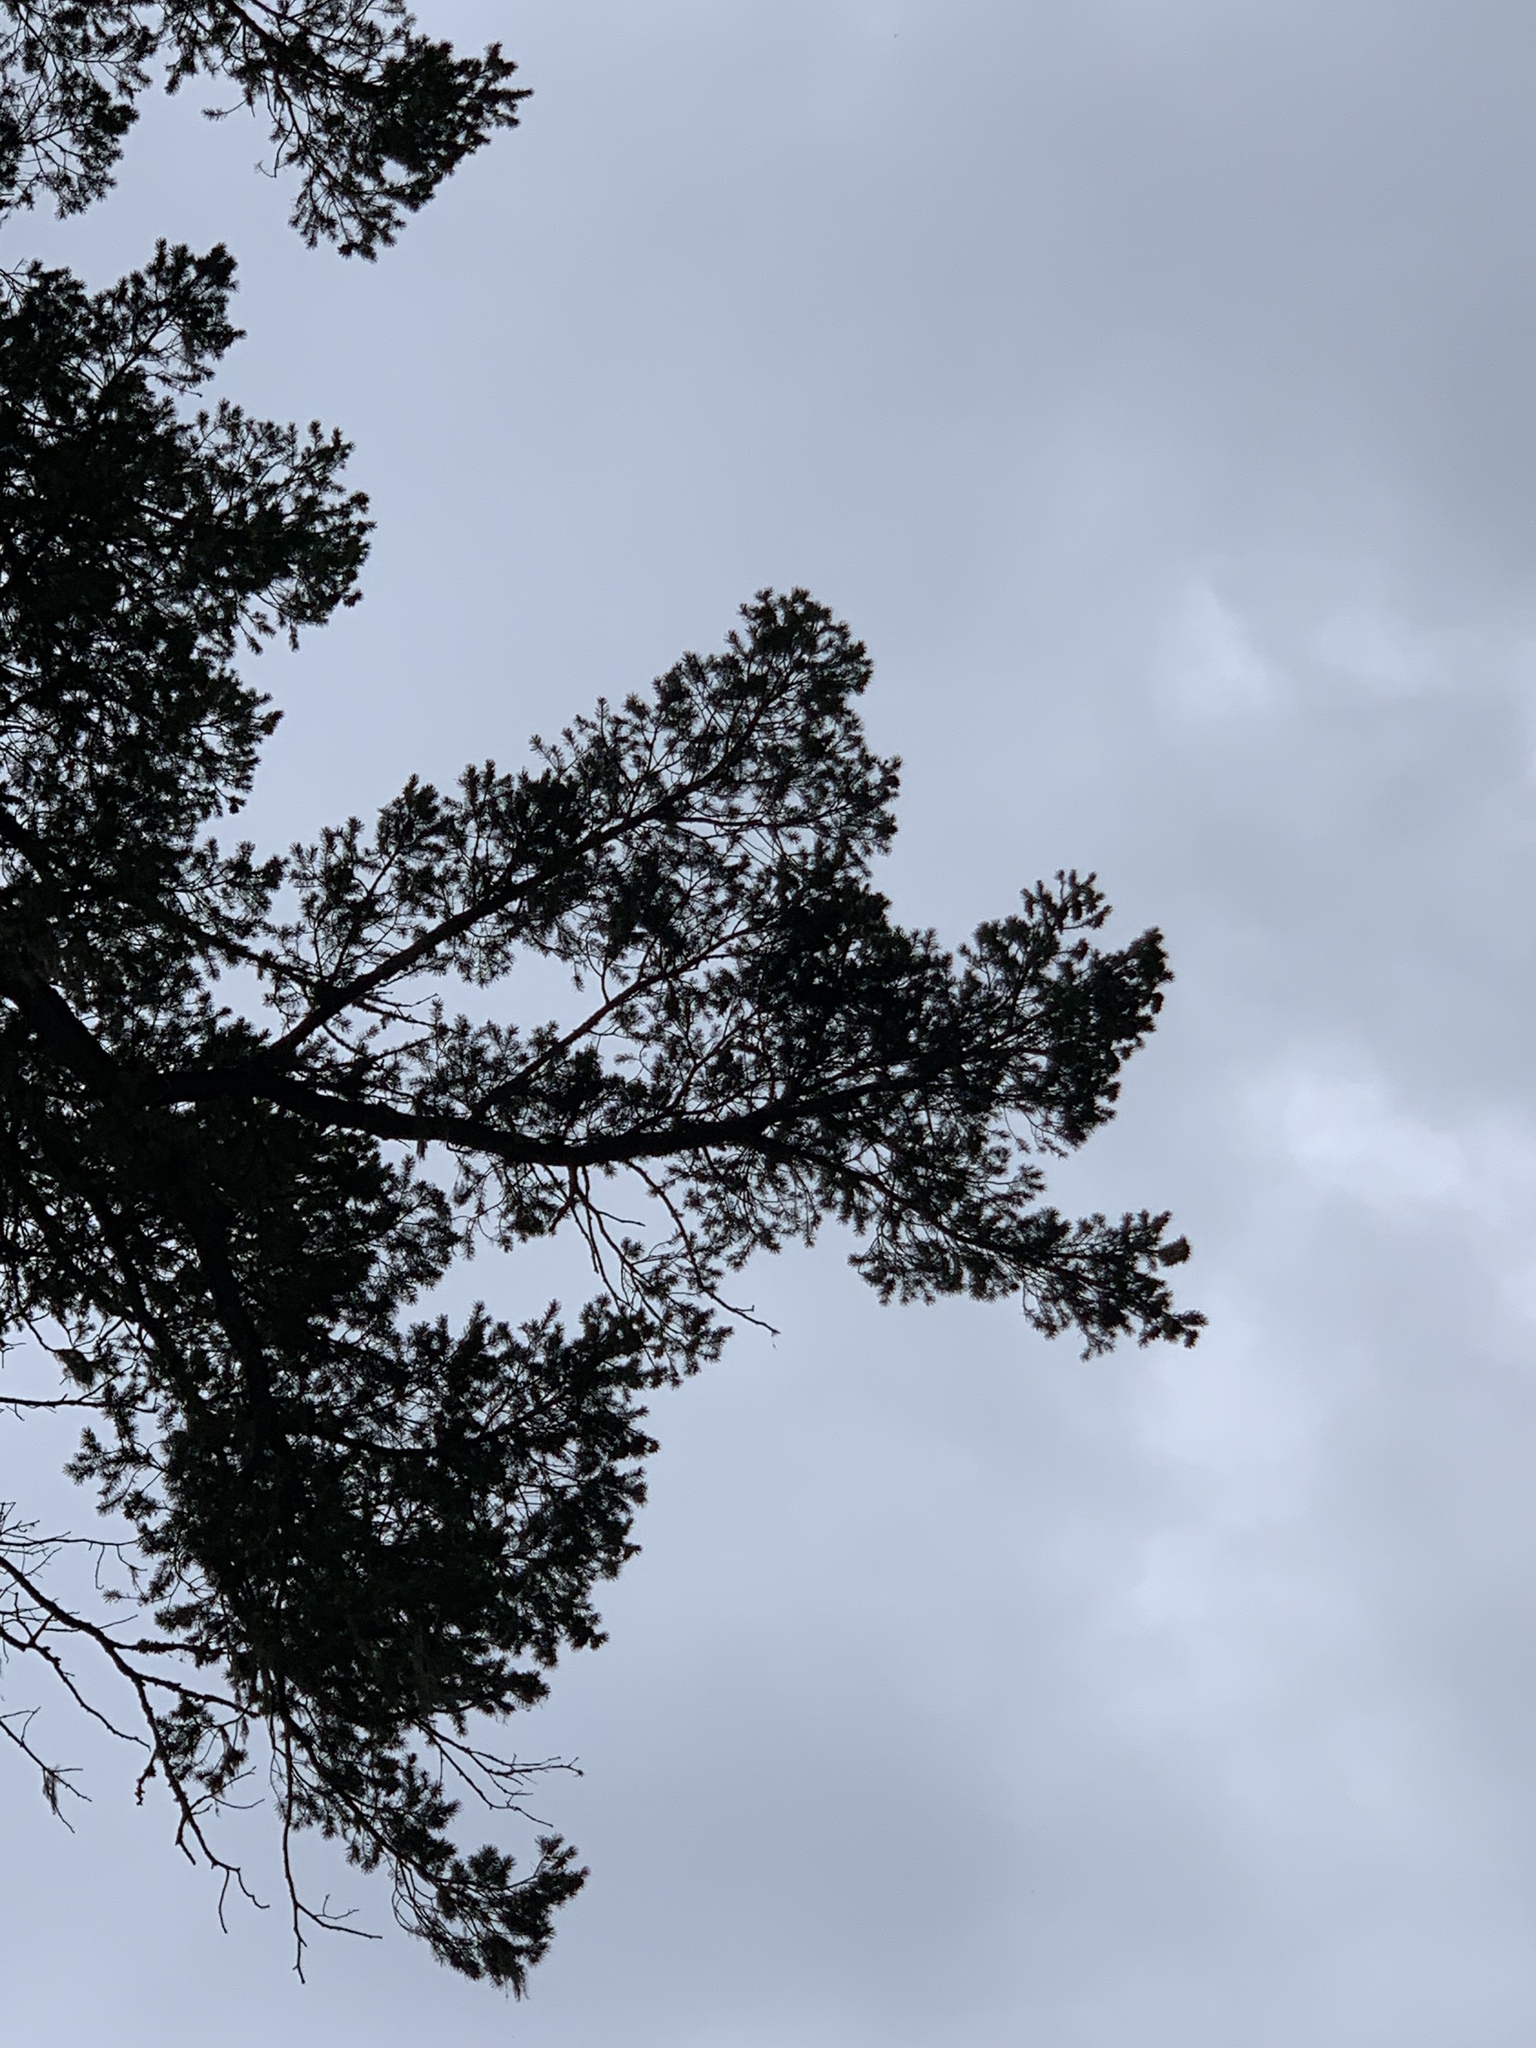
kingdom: Plantae
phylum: Tracheophyta
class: Pinopsida
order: Pinales
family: Pinaceae
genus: Pseudotsuga
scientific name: Pseudotsuga menziesii
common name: Douglas fir
